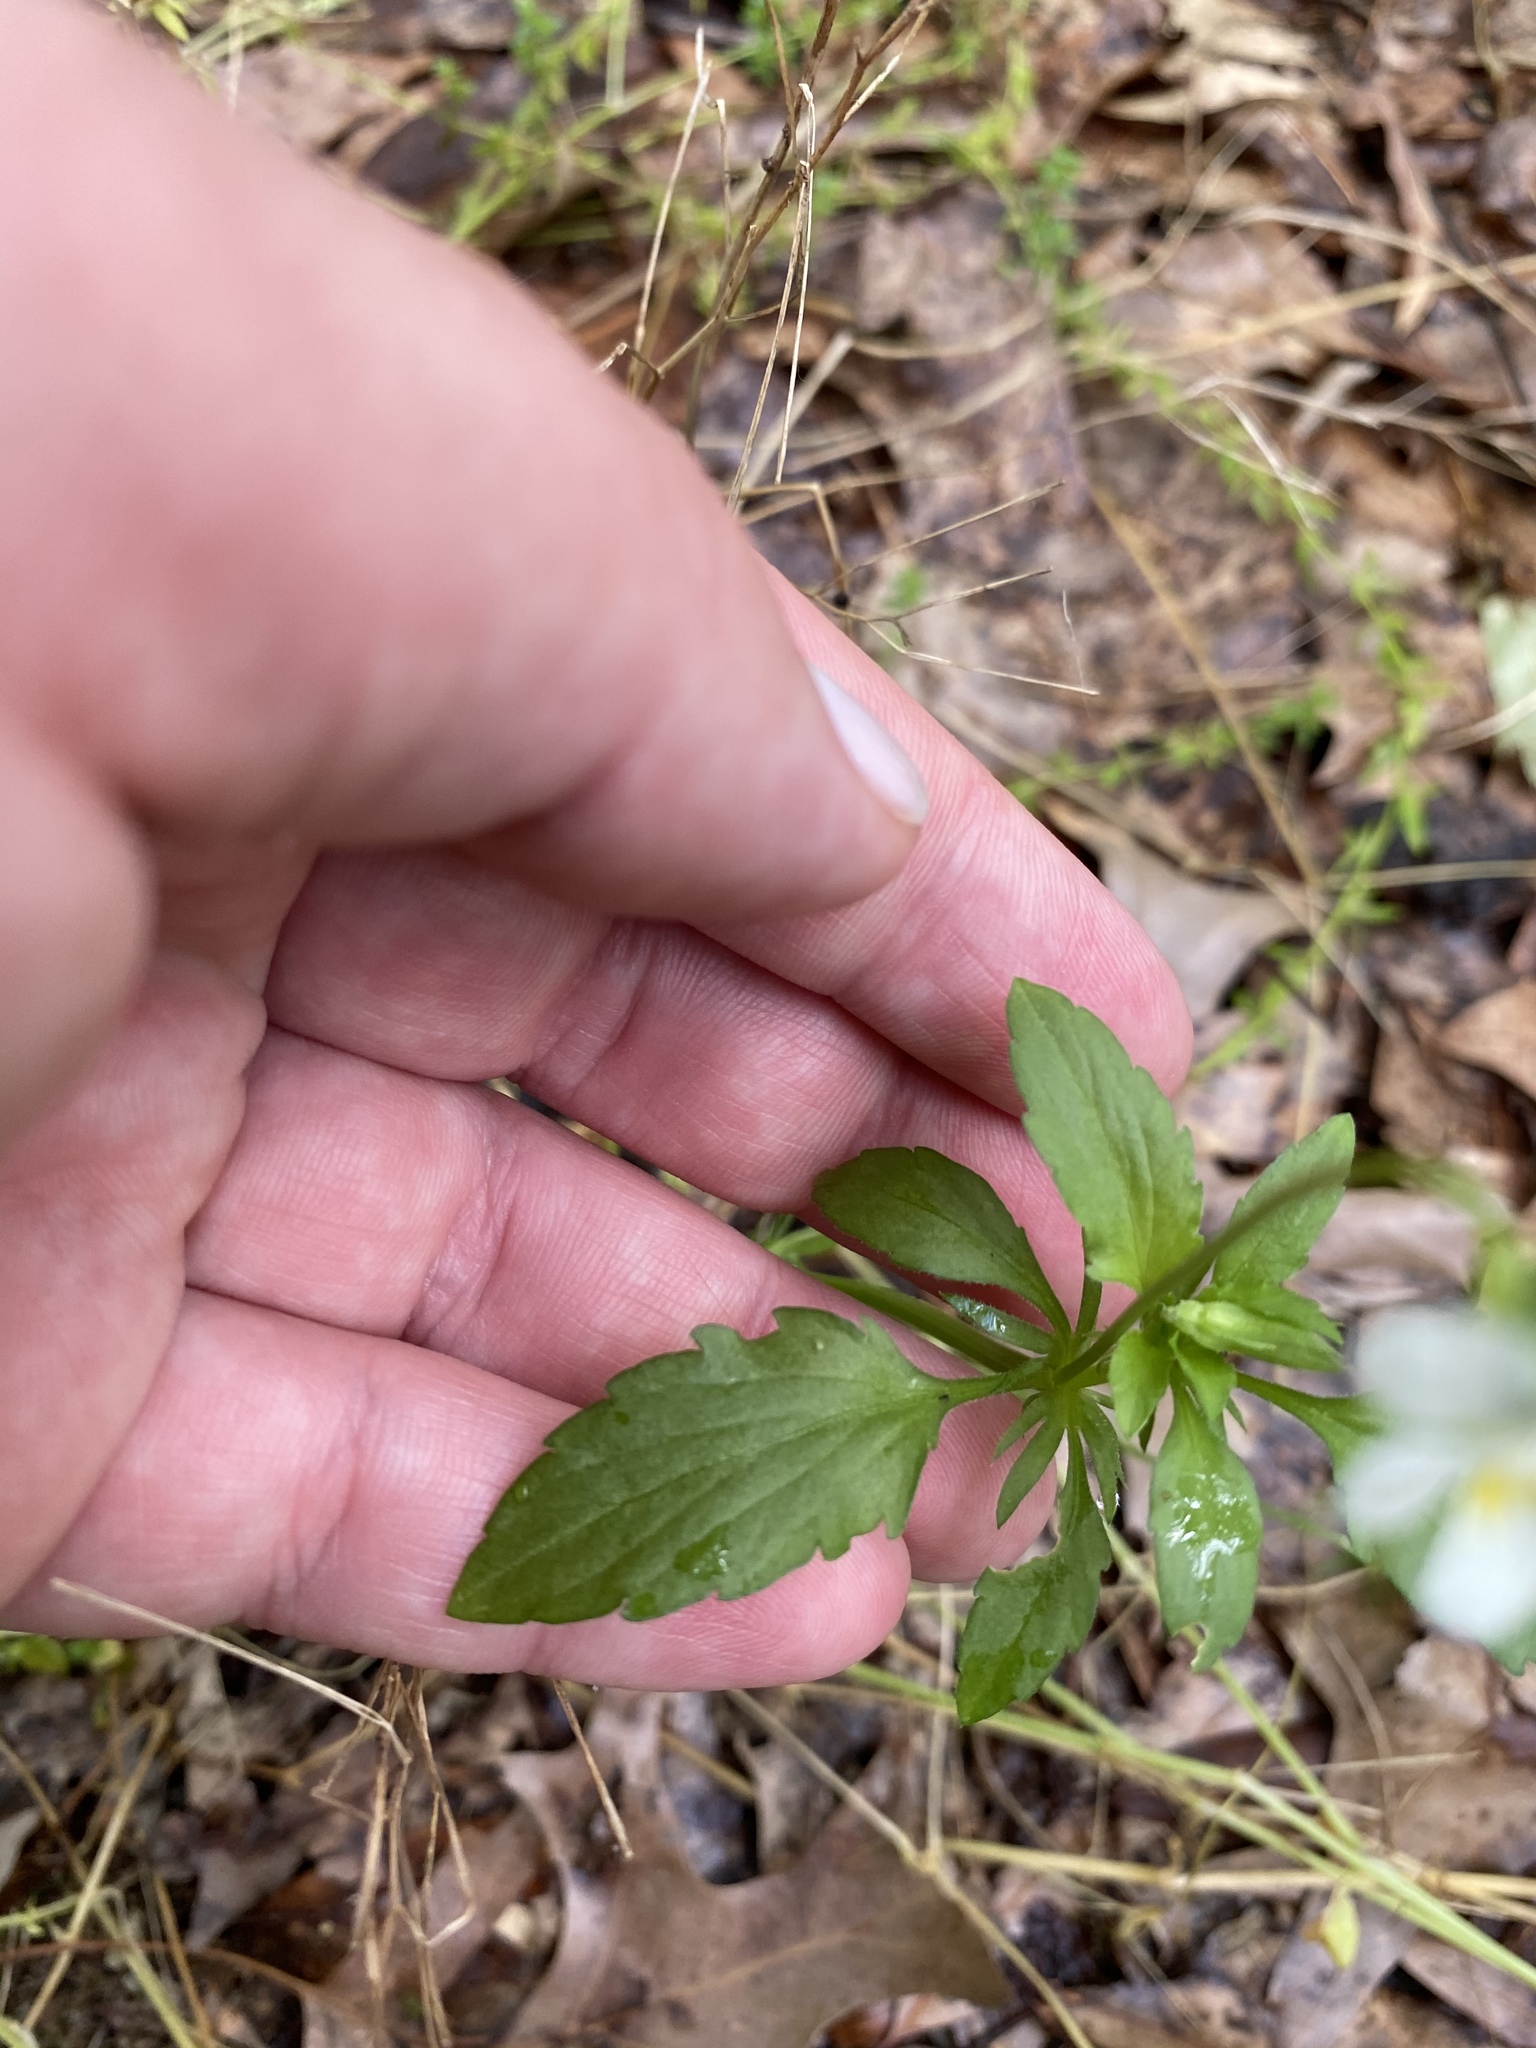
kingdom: Plantae
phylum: Tracheophyta
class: Magnoliopsida
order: Malpighiales
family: Violaceae
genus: Viola
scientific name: Viola arvensis
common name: Field pansy
